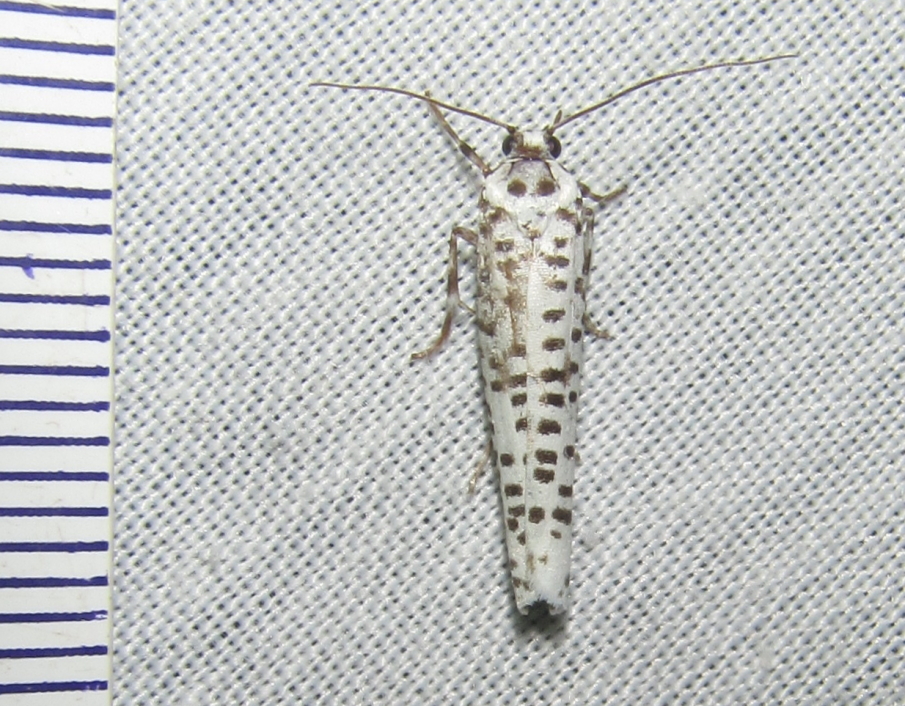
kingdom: Animalia
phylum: Arthropoda
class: Insecta
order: Lepidoptera
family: Yponomeutidae
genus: Yponomeuta
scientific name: Yponomeuta strigillata
